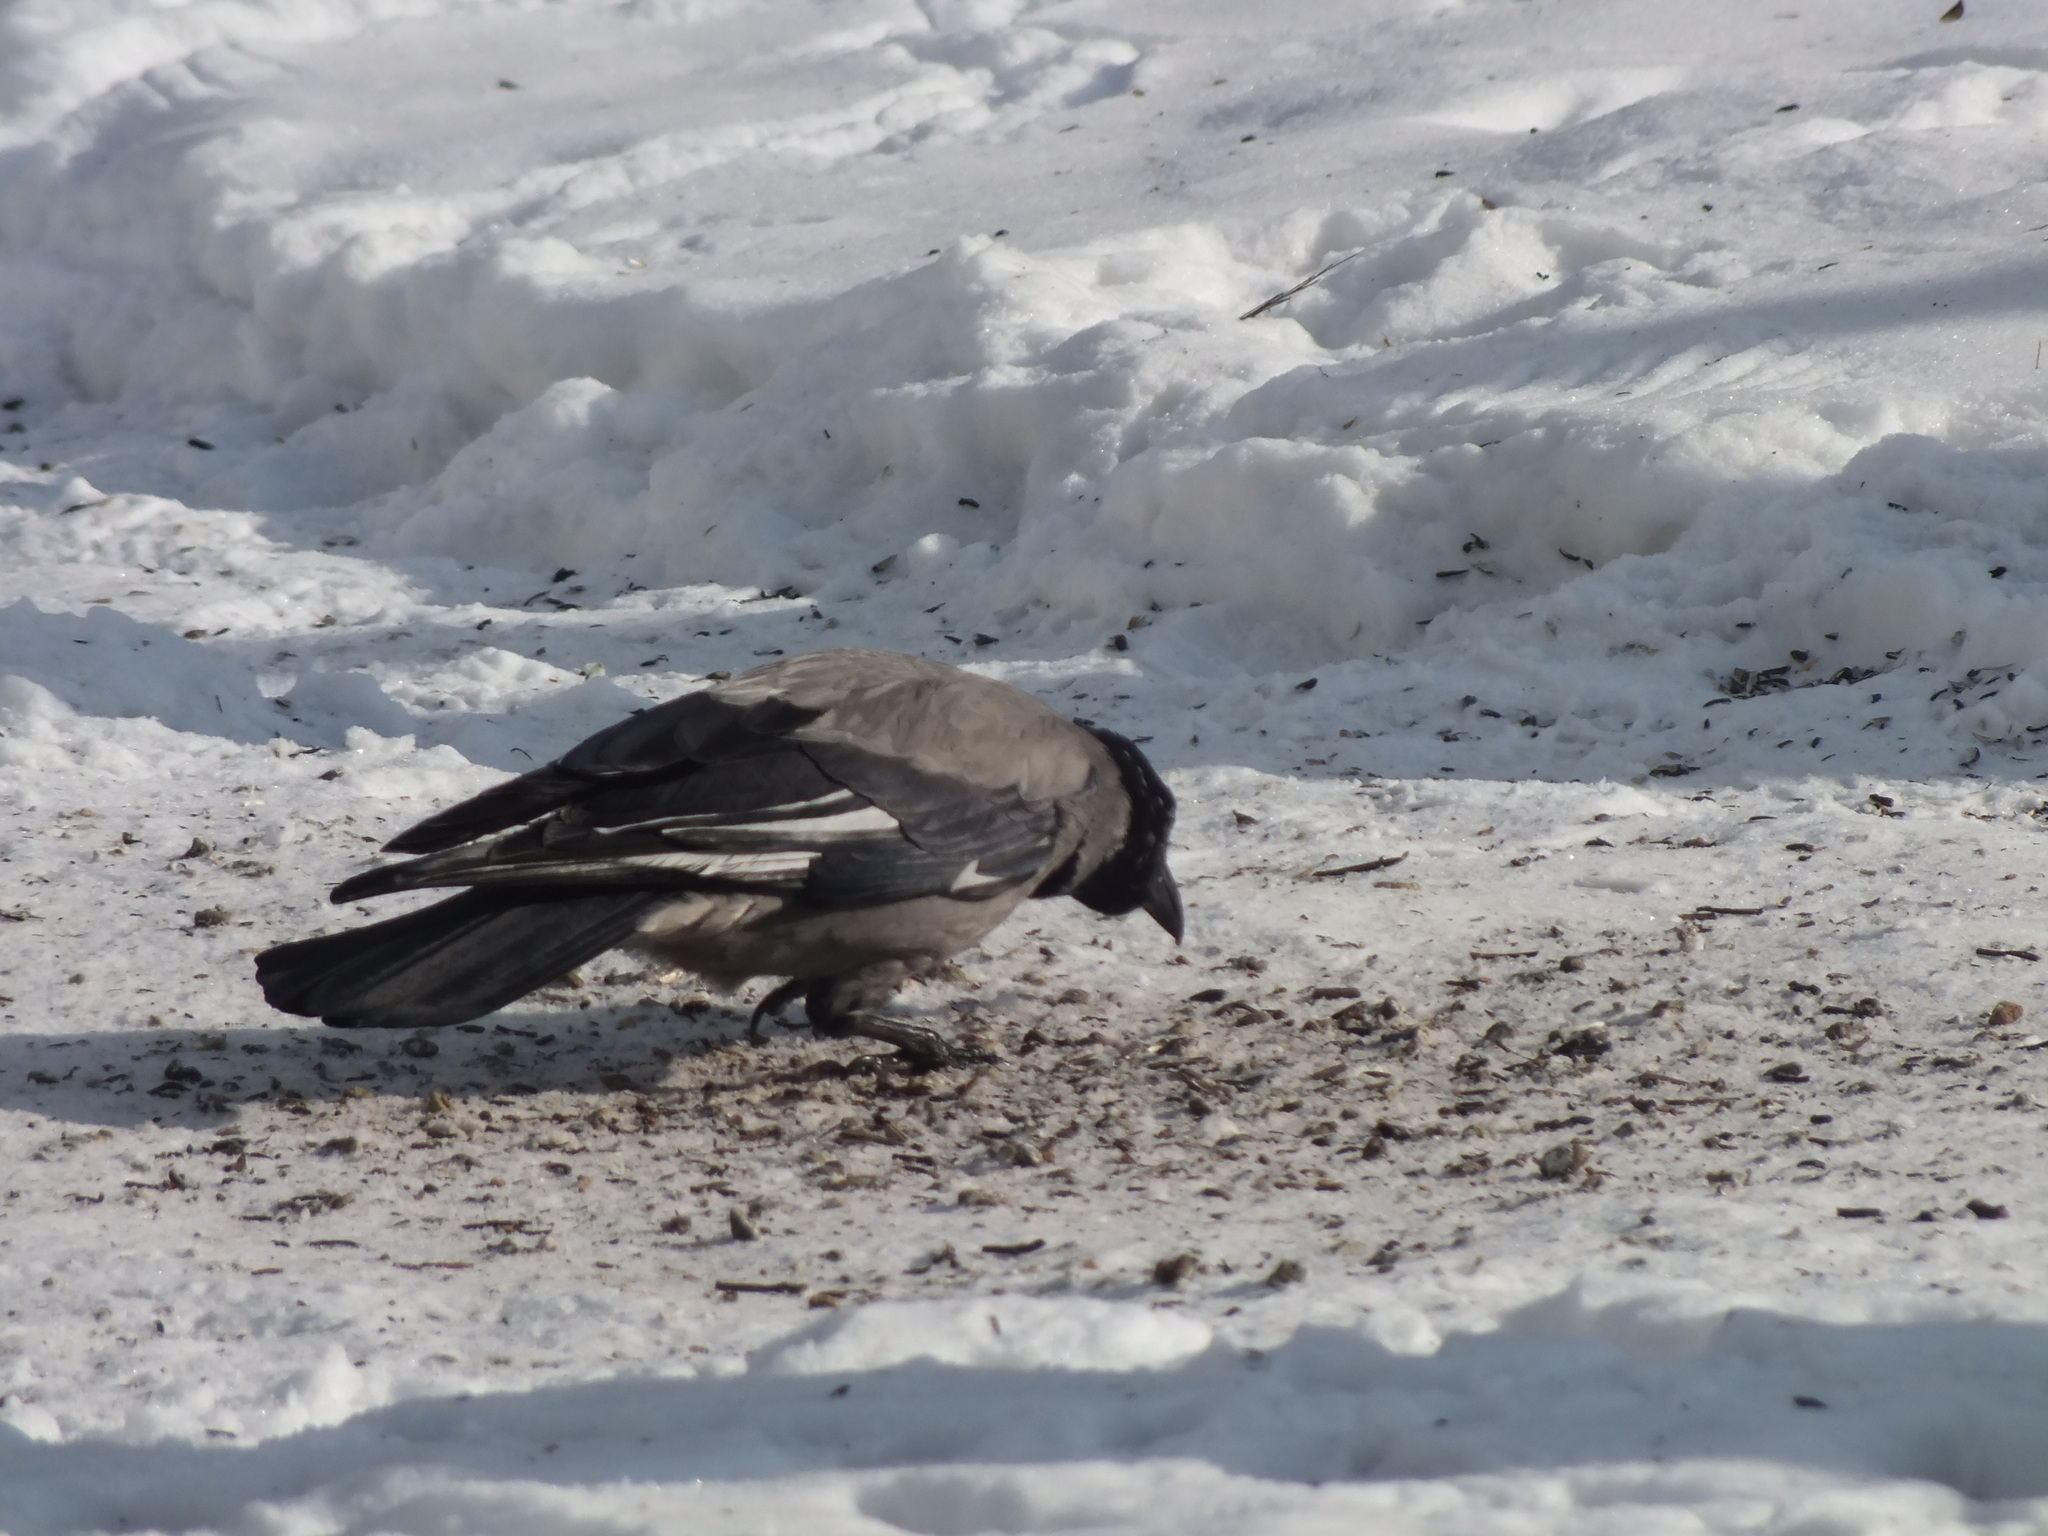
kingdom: Animalia
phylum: Chordata
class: Aves
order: Passeriformes
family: Corvidae
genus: Corvus
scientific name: Corvus cornix
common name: Hooded crow
